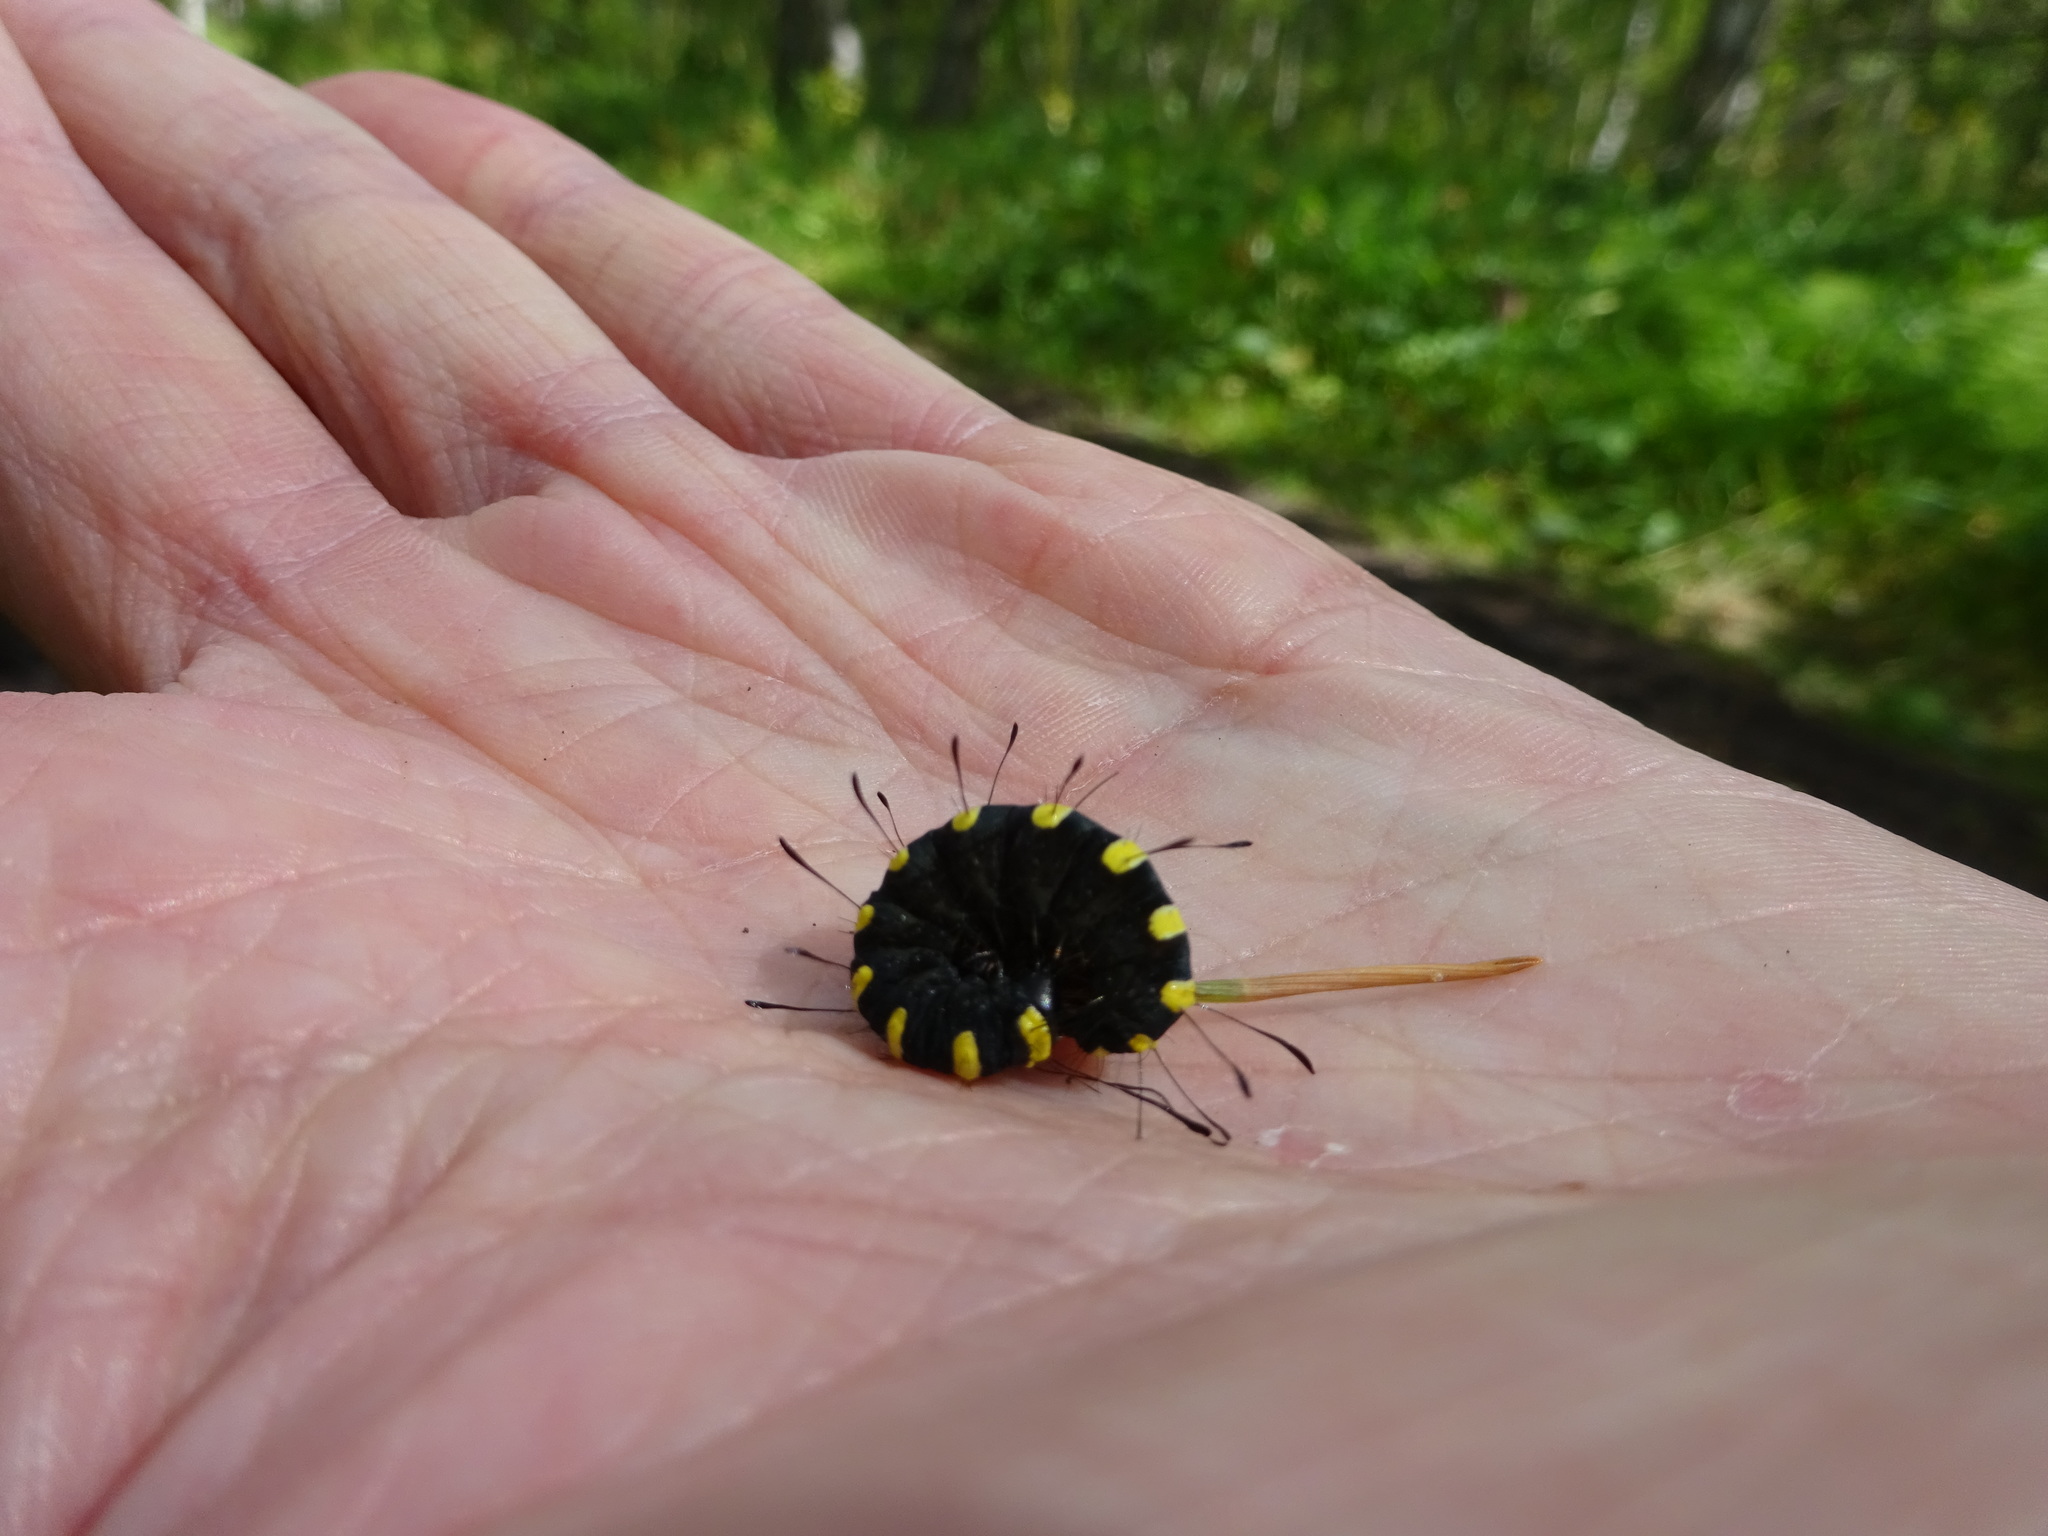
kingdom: Animalia
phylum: Arthropoda
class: Insecta
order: Lepidoptera
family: Noctuidae
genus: Acronicta
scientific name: Acronicta alni
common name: Alder moth
